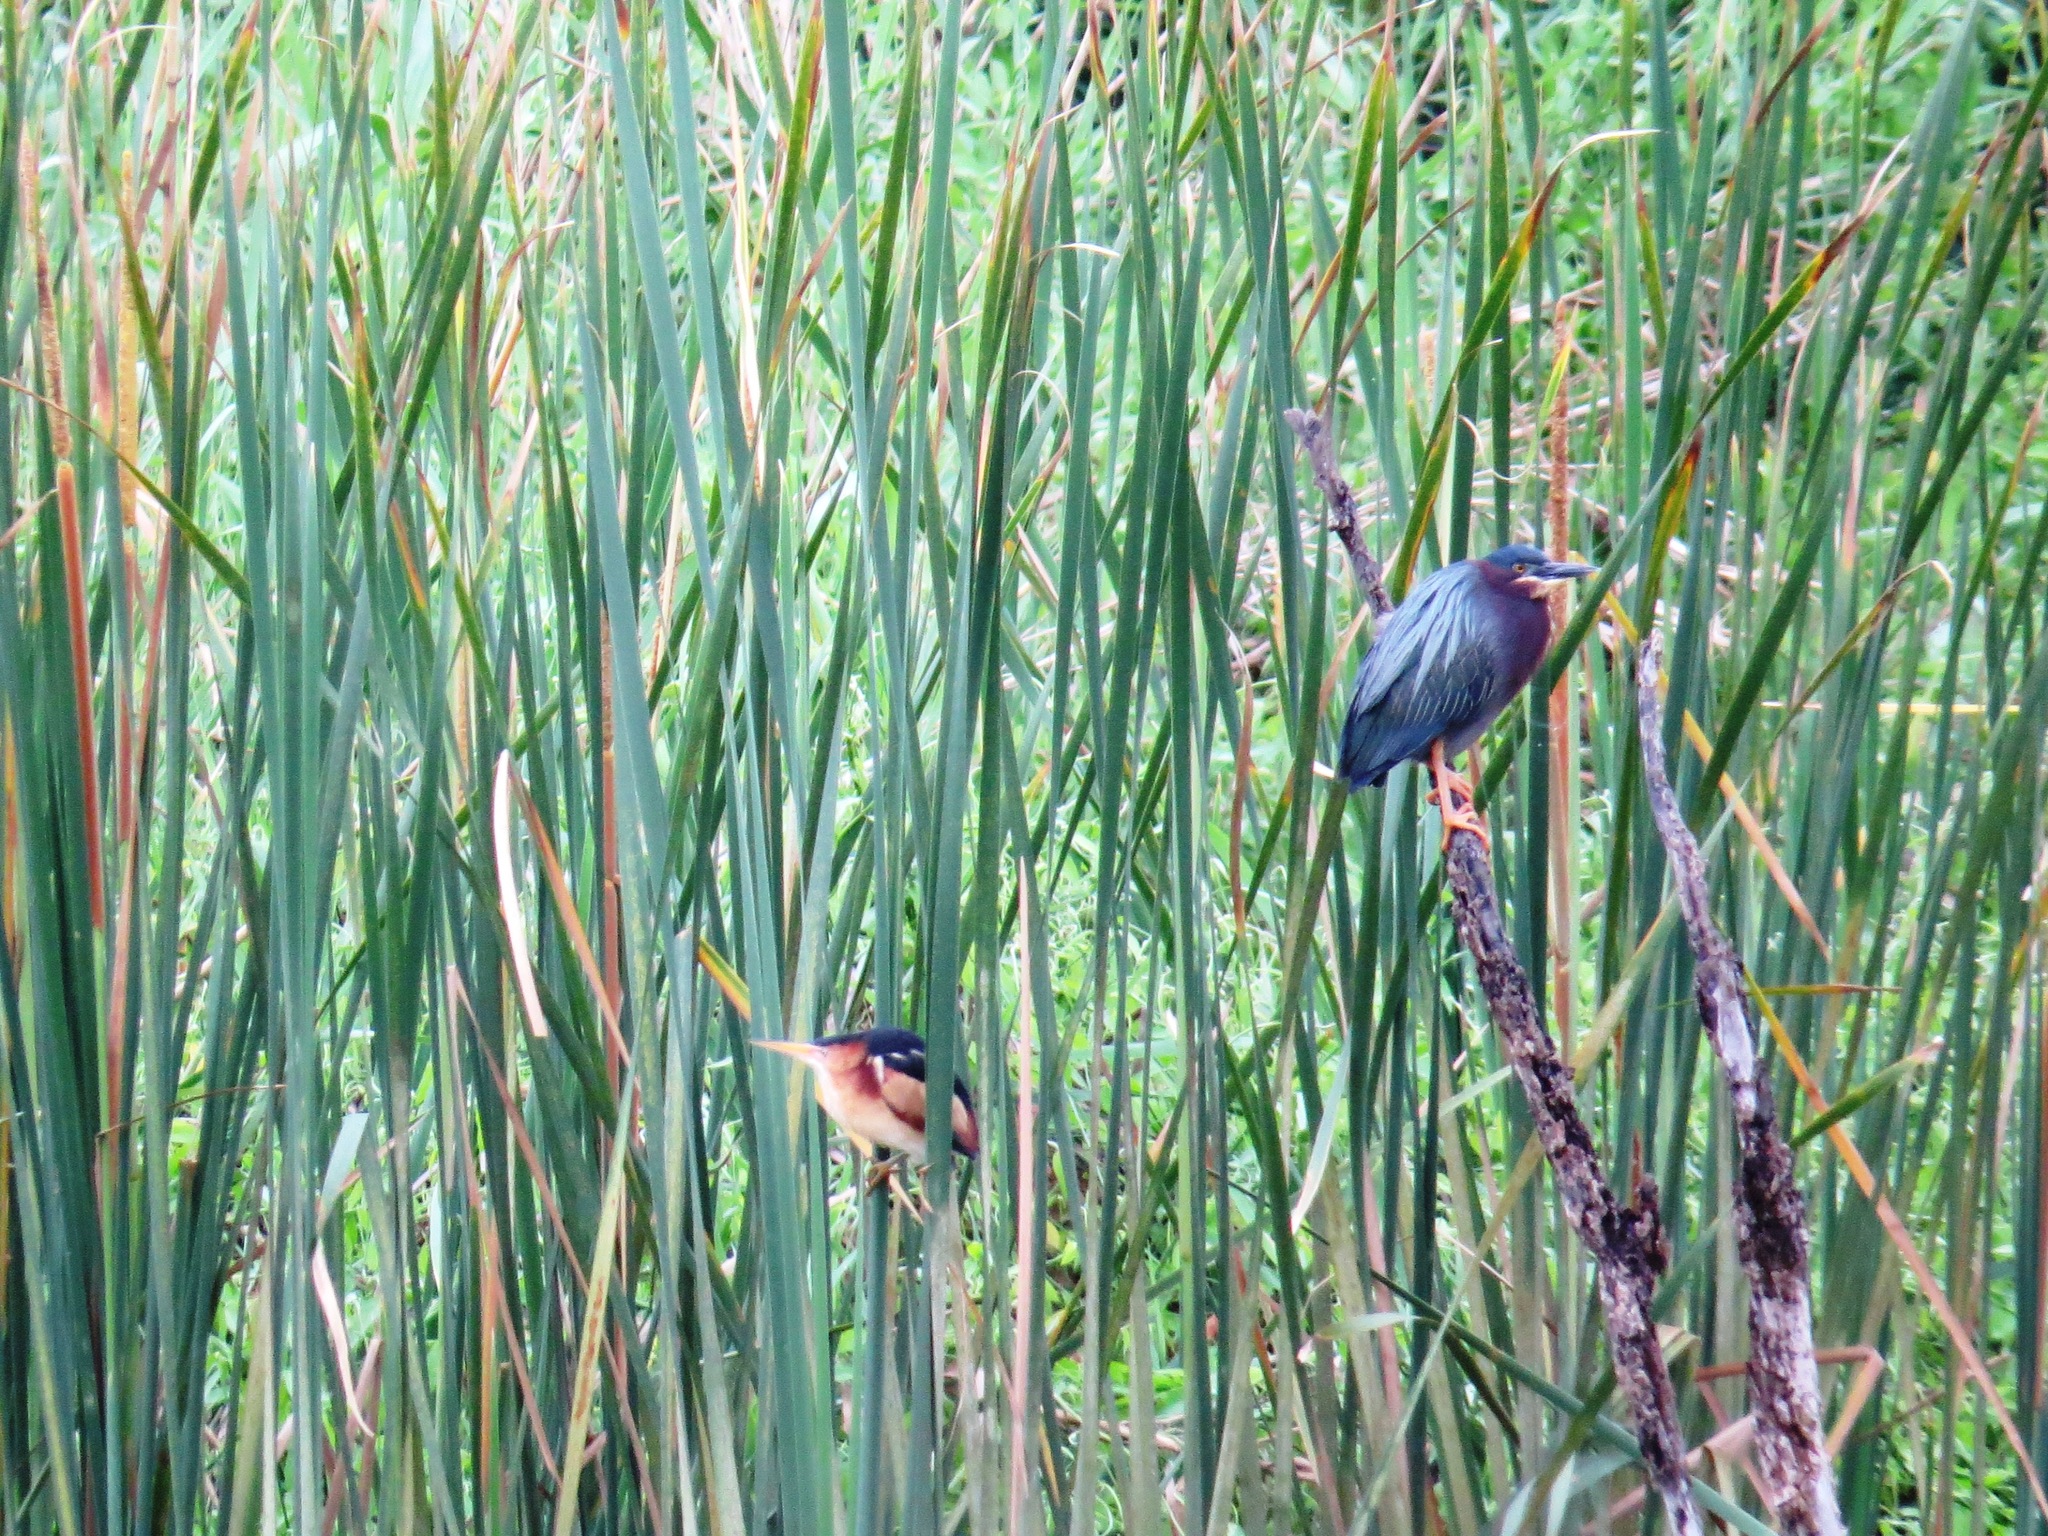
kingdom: Animalia
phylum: Chordata
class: Aves
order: Pelecaniformes
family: Ardeidae
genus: Ixobrychus
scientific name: Ixobrychus exilis
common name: Least bittern
